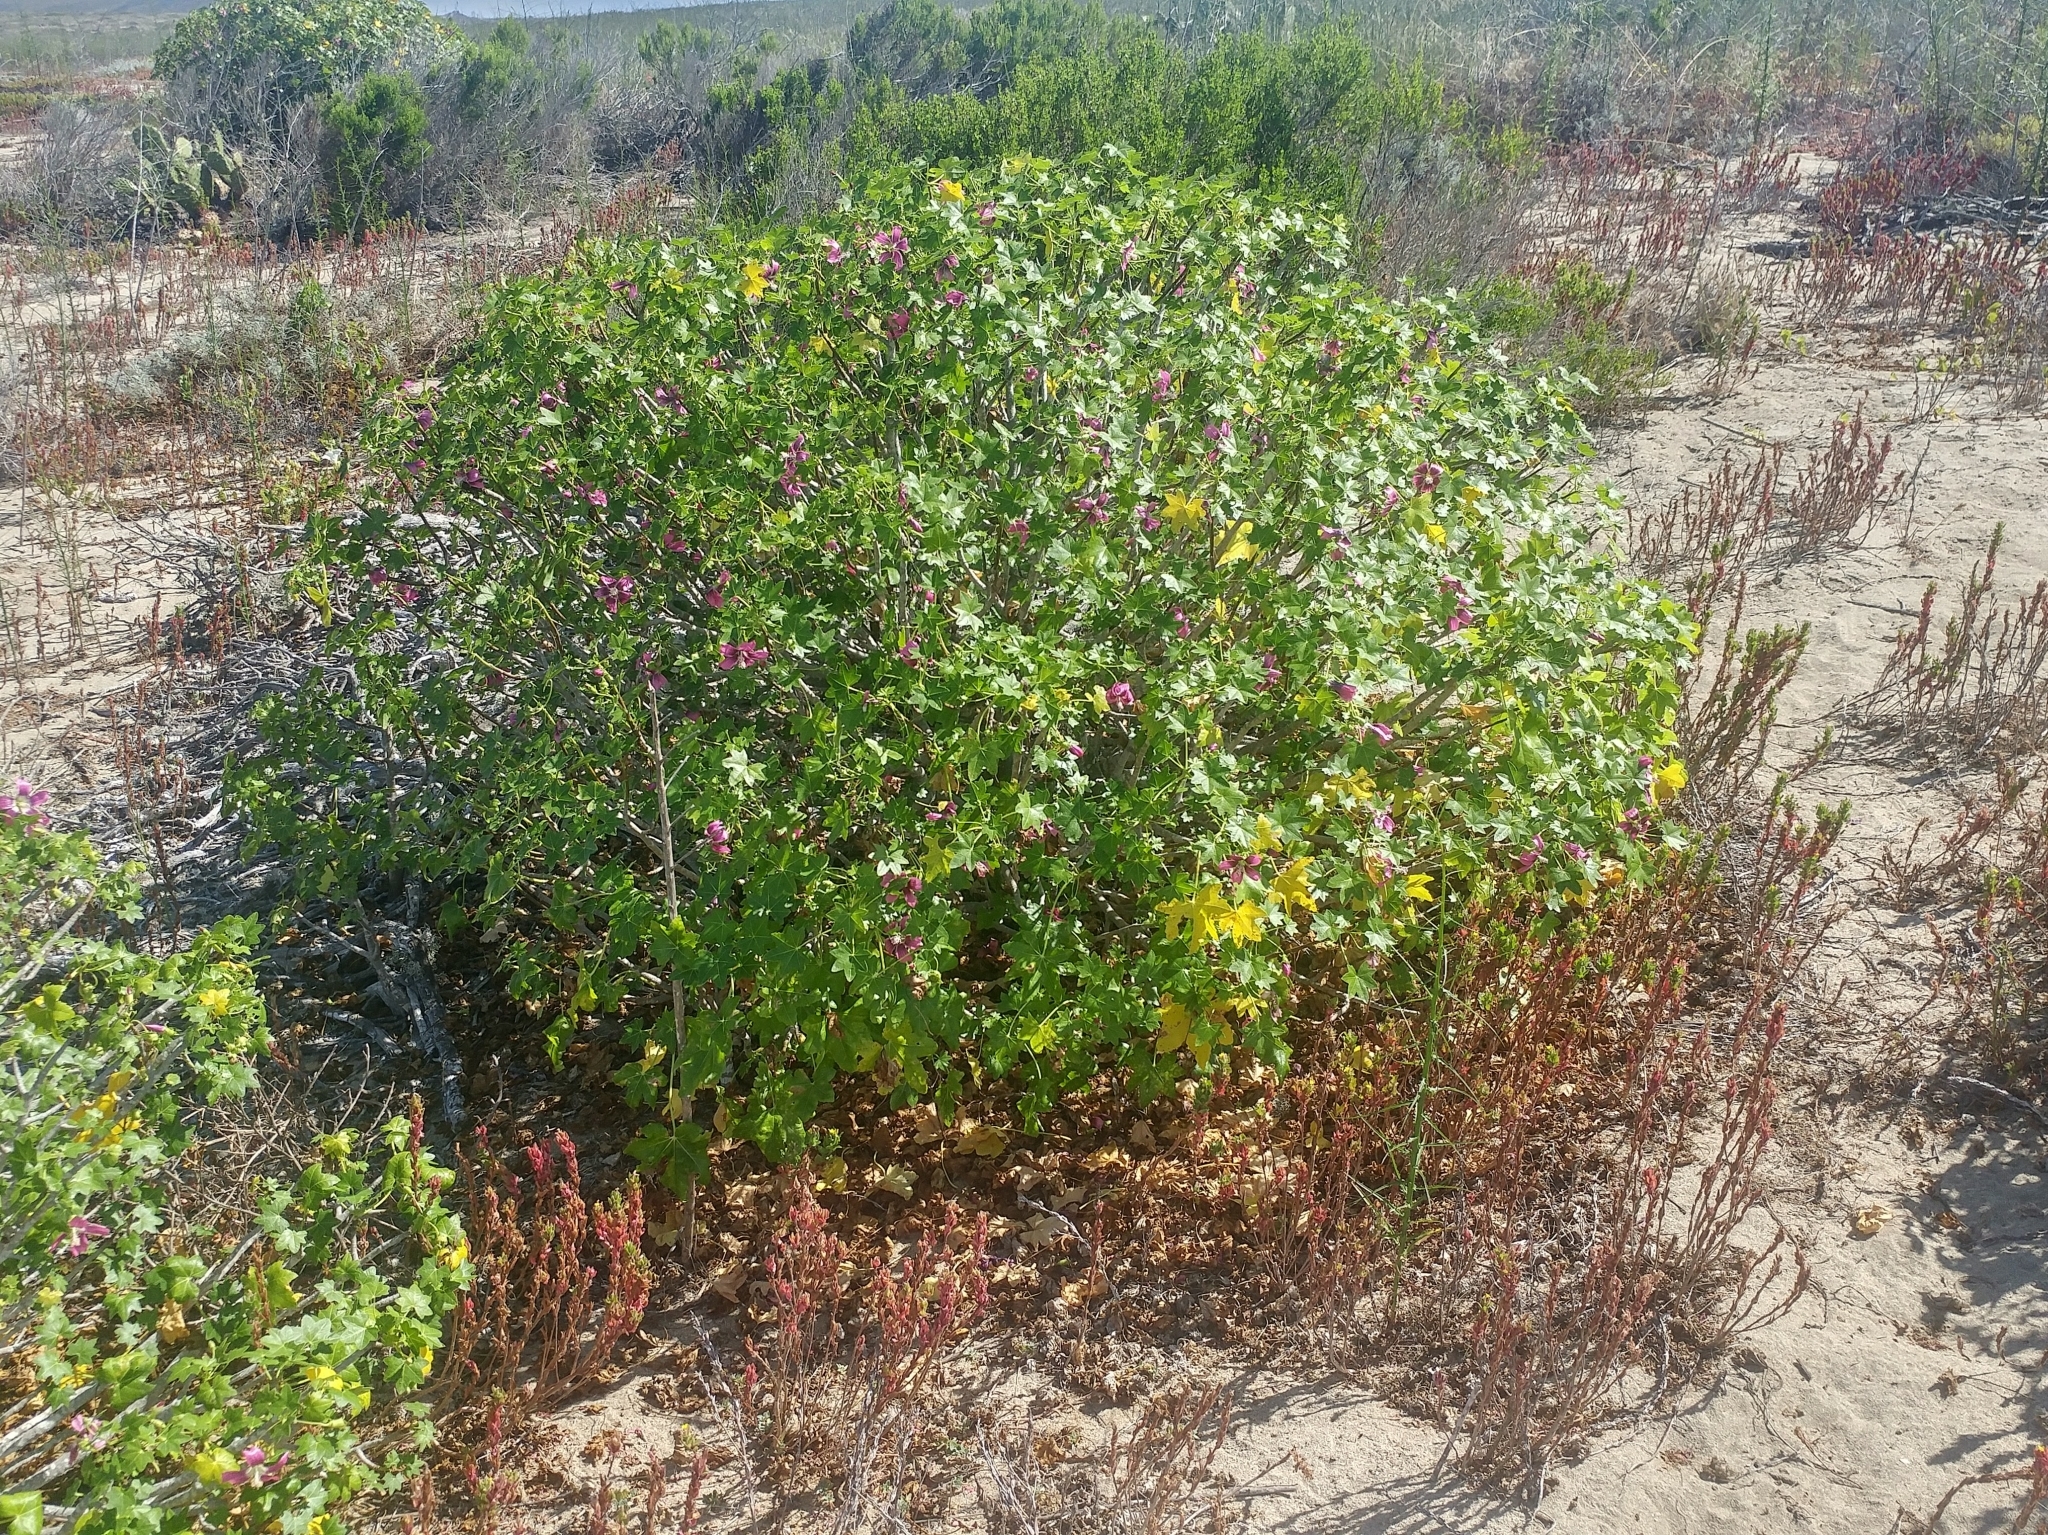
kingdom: Plantae
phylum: Tracheophyta
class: Magnoliopsida
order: Malvales
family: Malvaceae
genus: Malva
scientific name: Malva assurgentiflora
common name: Island mallow
